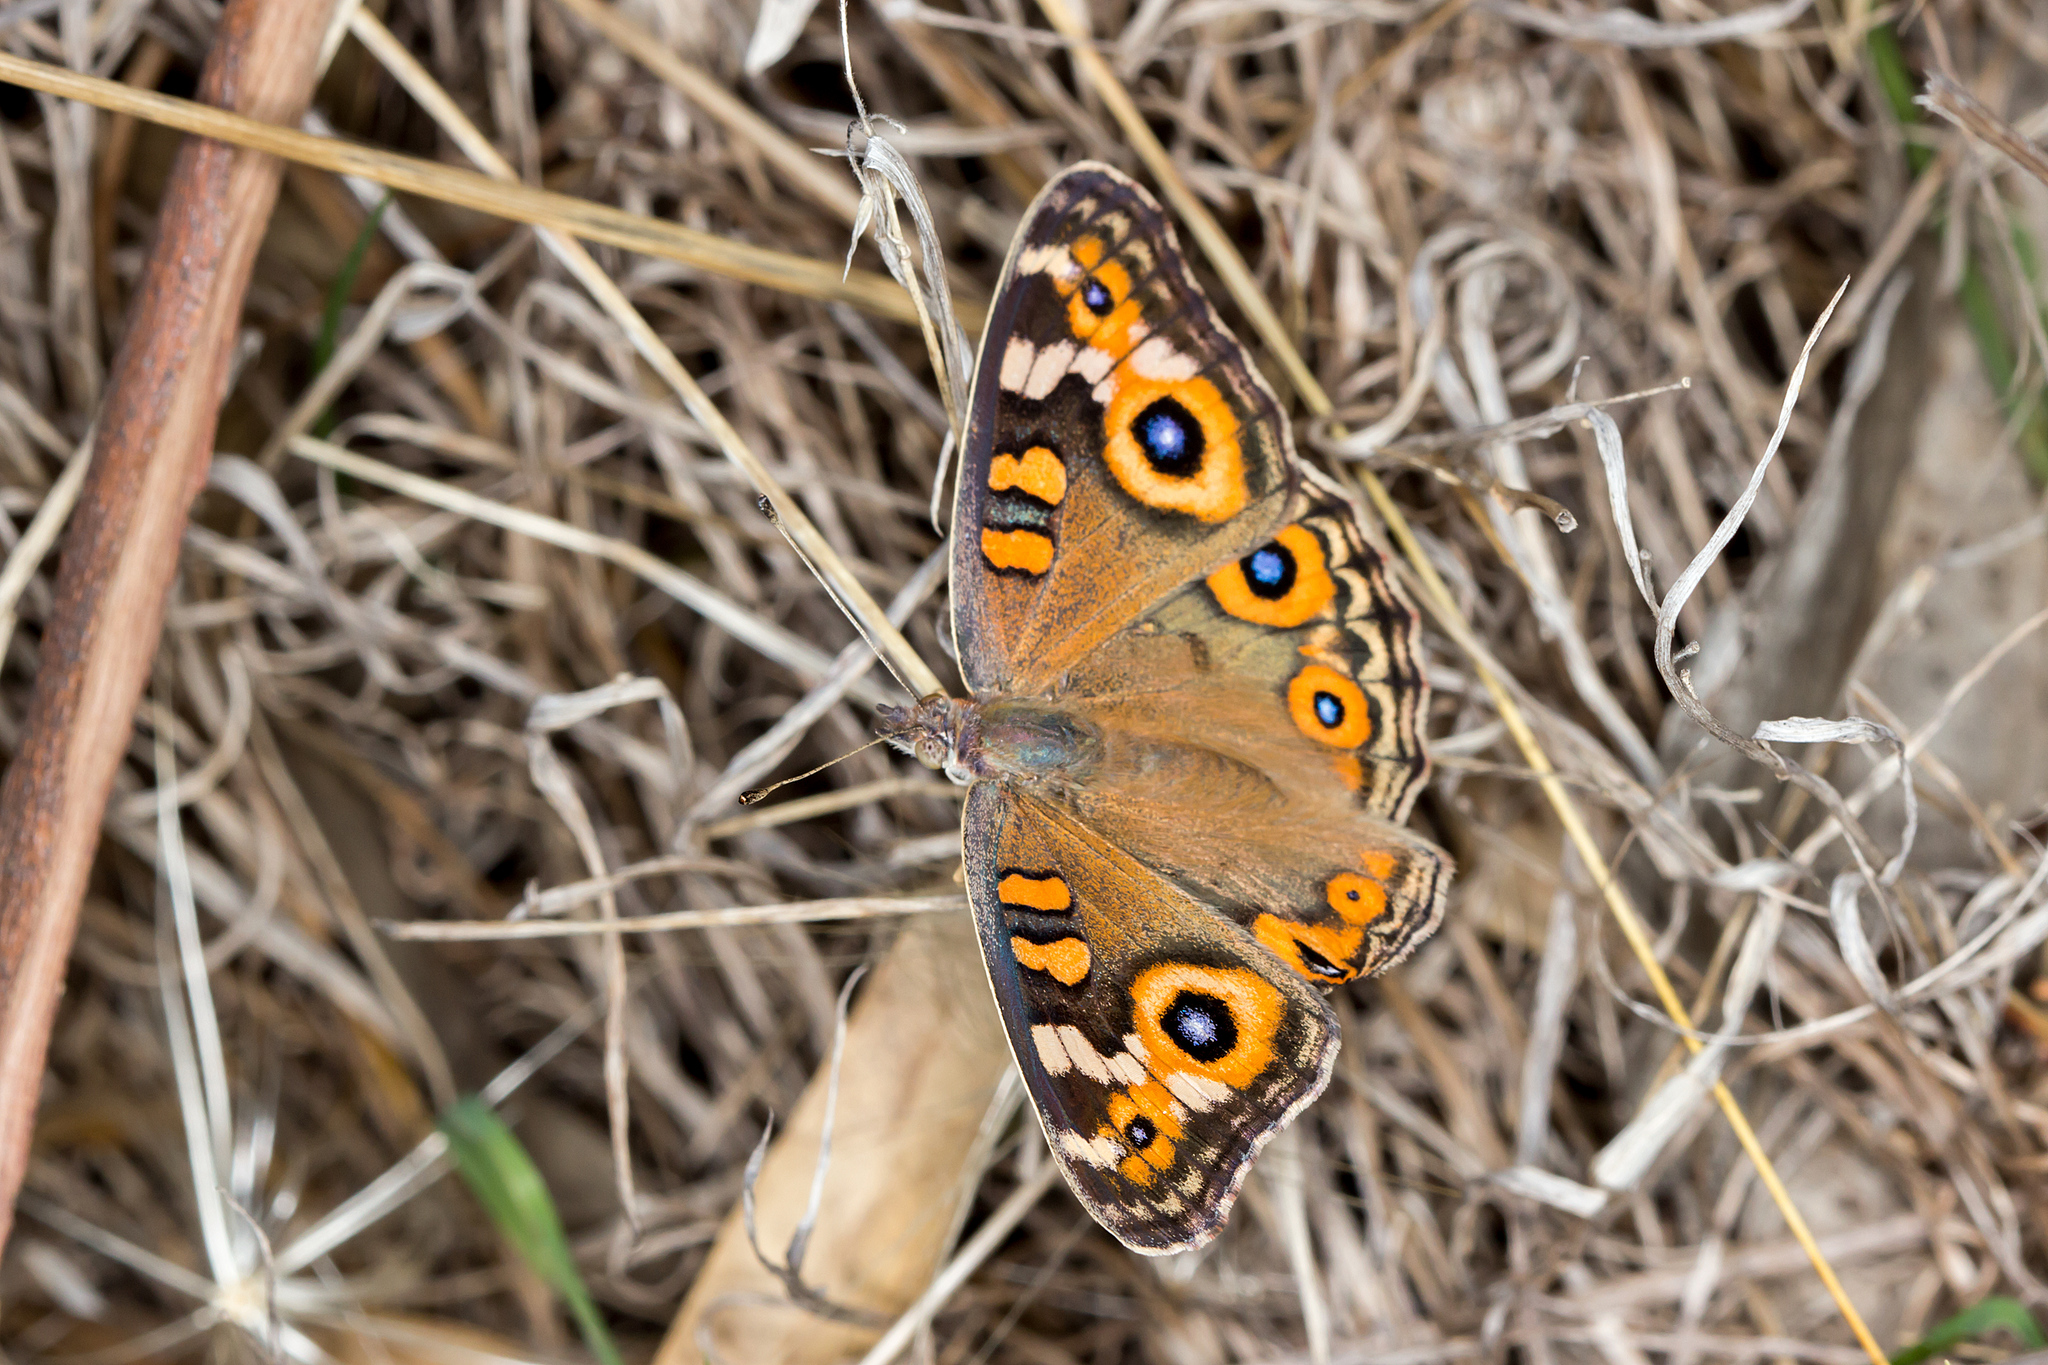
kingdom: Animalia
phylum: Arthropoda
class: Insecta
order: Lepidoptera
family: Nymphalidae
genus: Junonia
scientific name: Junonia villida
